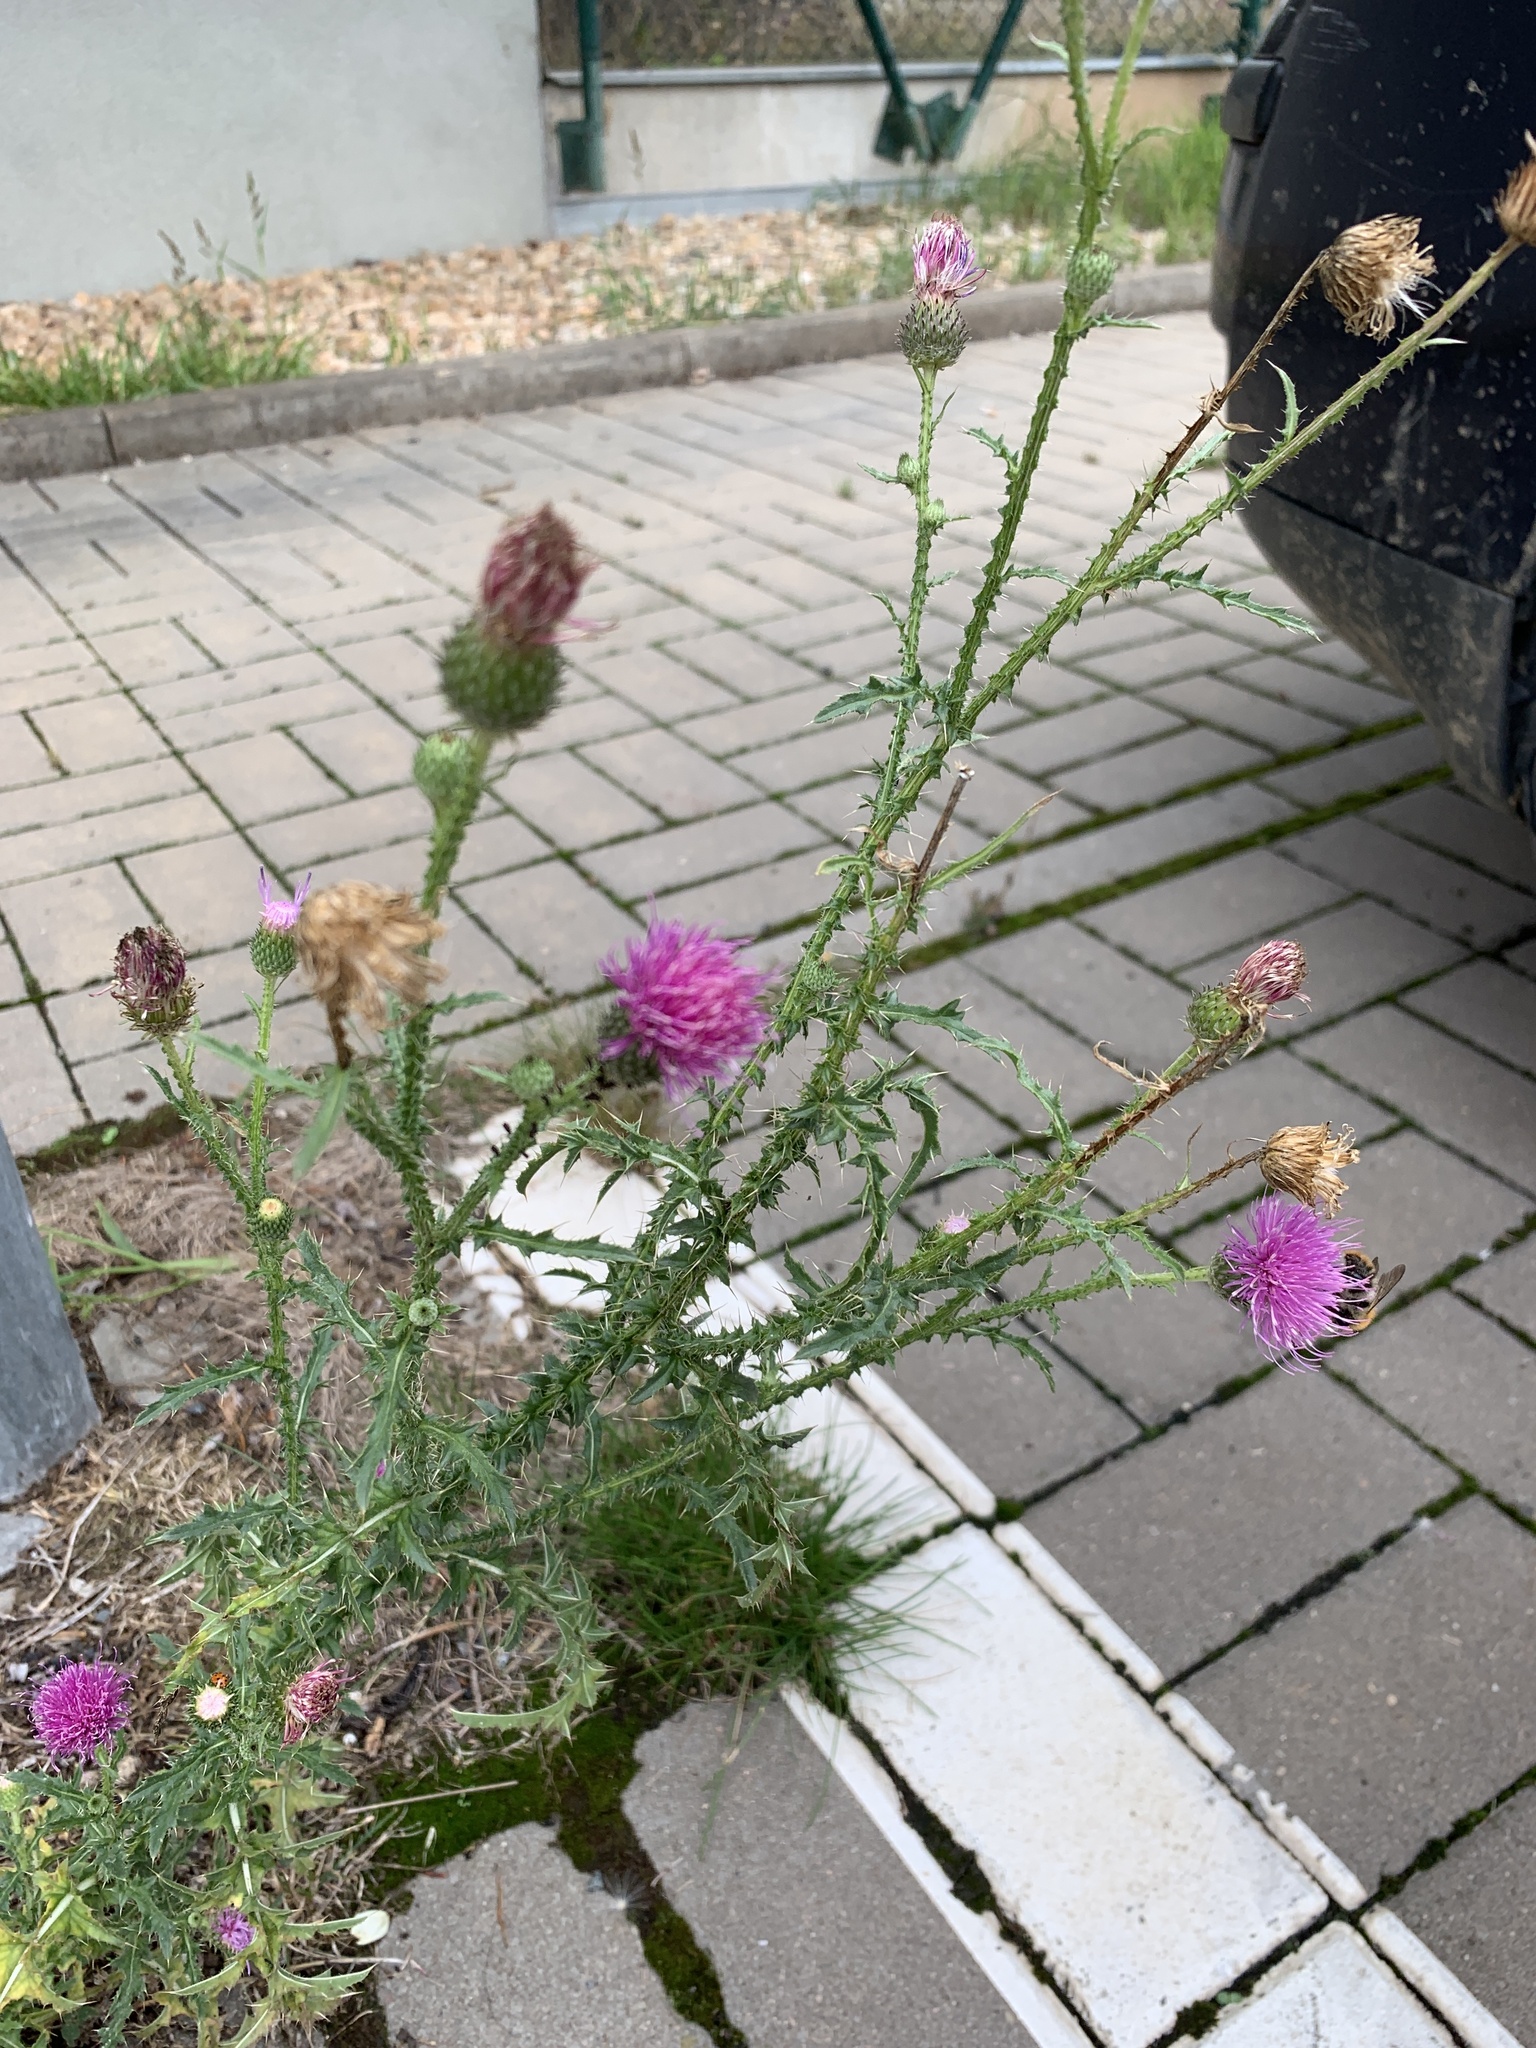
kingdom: Plantae
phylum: Tracheophyta
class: Magnoliopsida
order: Asterales
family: Asteraceae
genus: Carduus
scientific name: Carduus acanthoides
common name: Plumeless thistle
